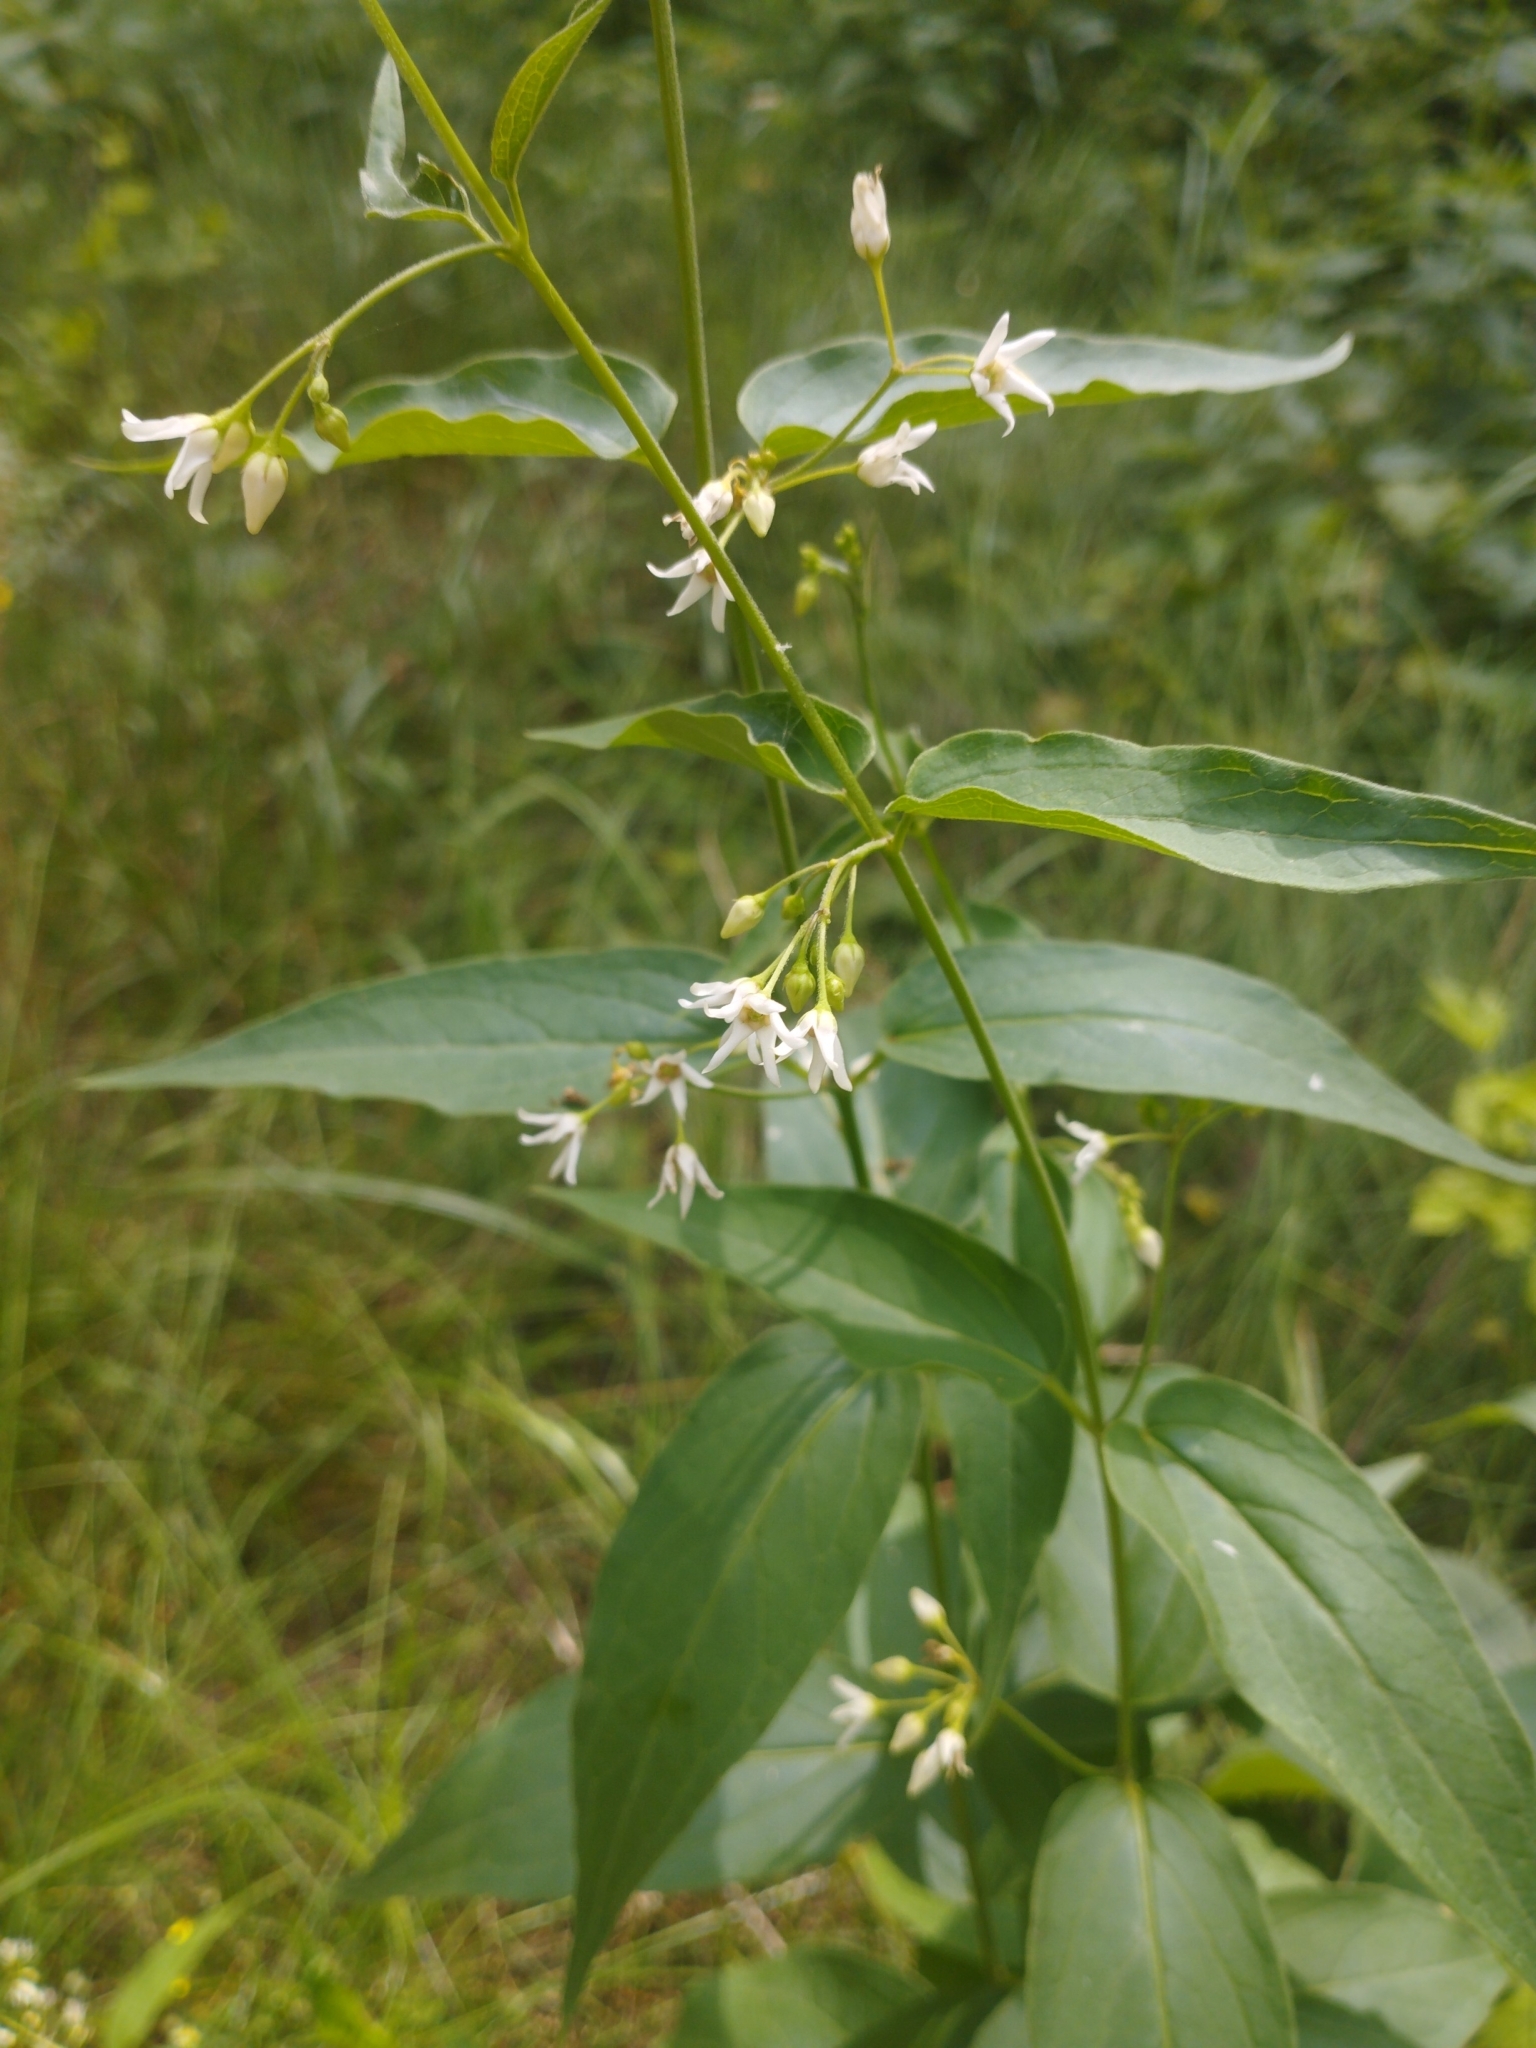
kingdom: Plantae
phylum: Tracheophyta
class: Magnoliopsida
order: Gentianales
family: Apocynaceae
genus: Vincetoxicum
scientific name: Vincetoxicum hirundinaria
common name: White swallowwort
